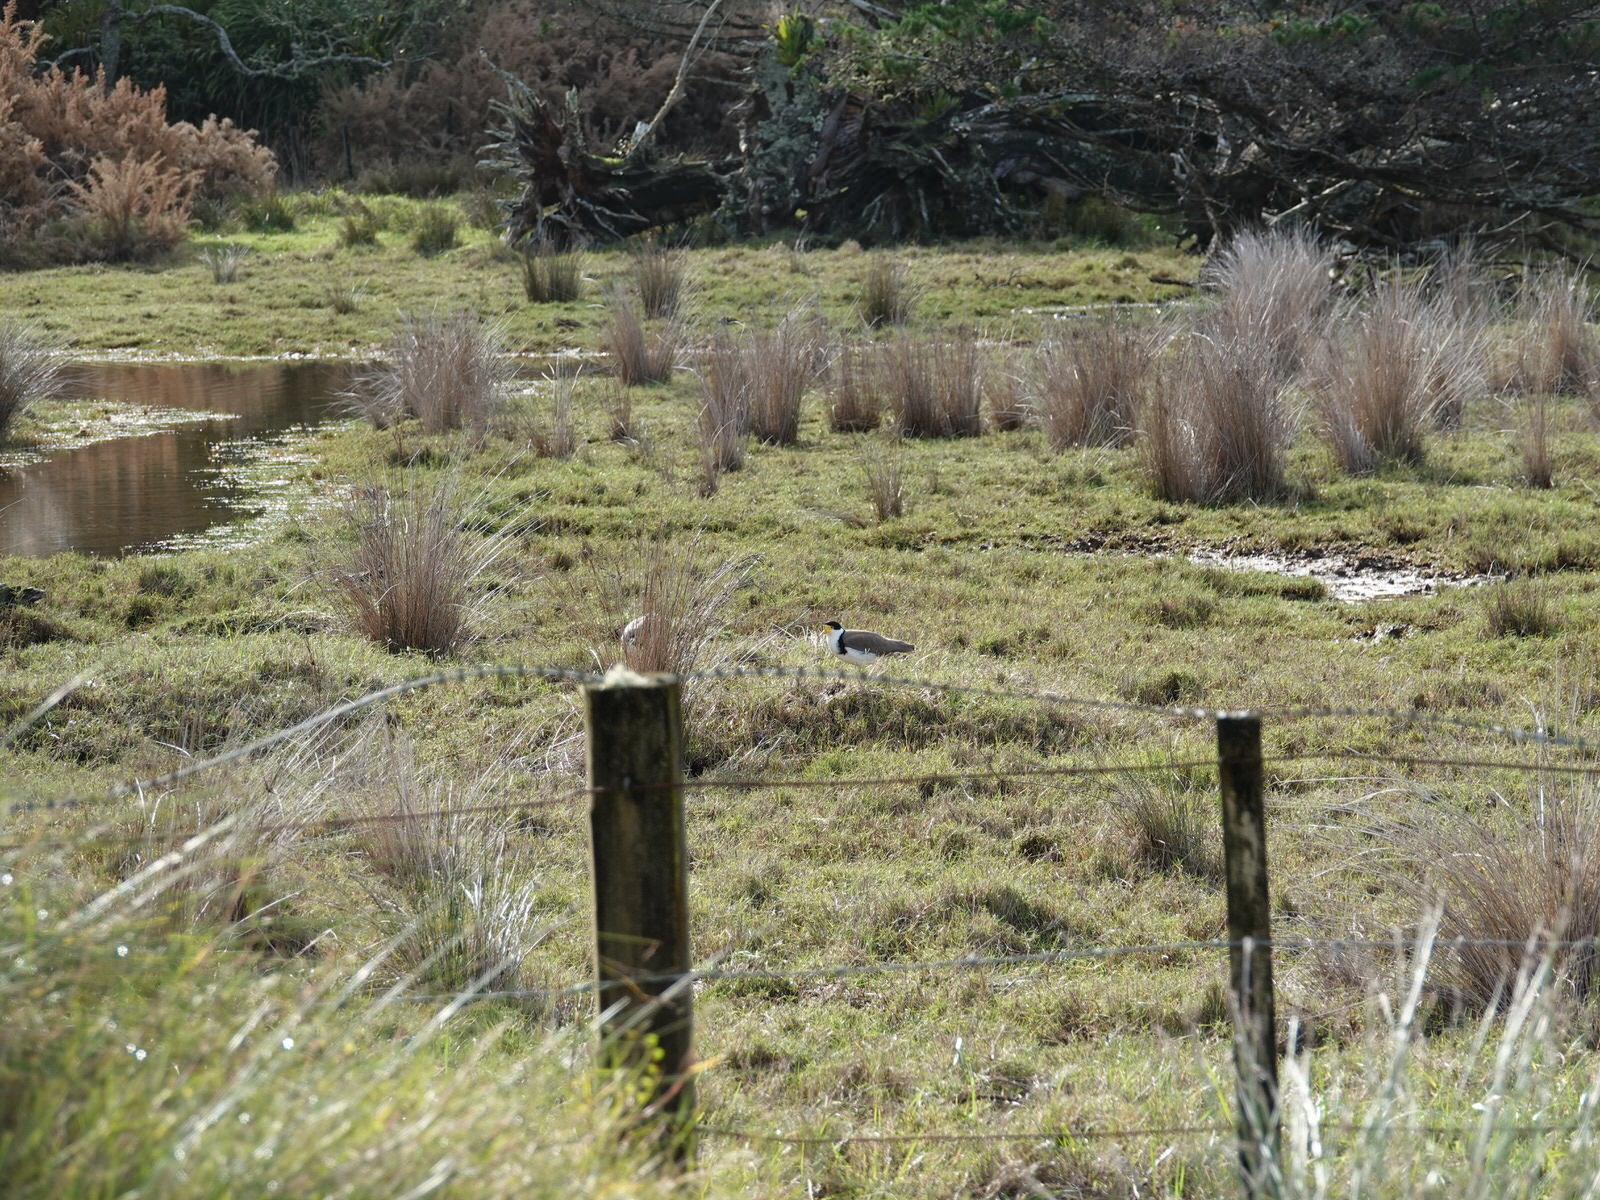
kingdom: Animalia
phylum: Chordata
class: Aves
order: Charadriiformes
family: Charadriidae
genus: Vanellus
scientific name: Vanellus miles
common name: Masked lapwing
